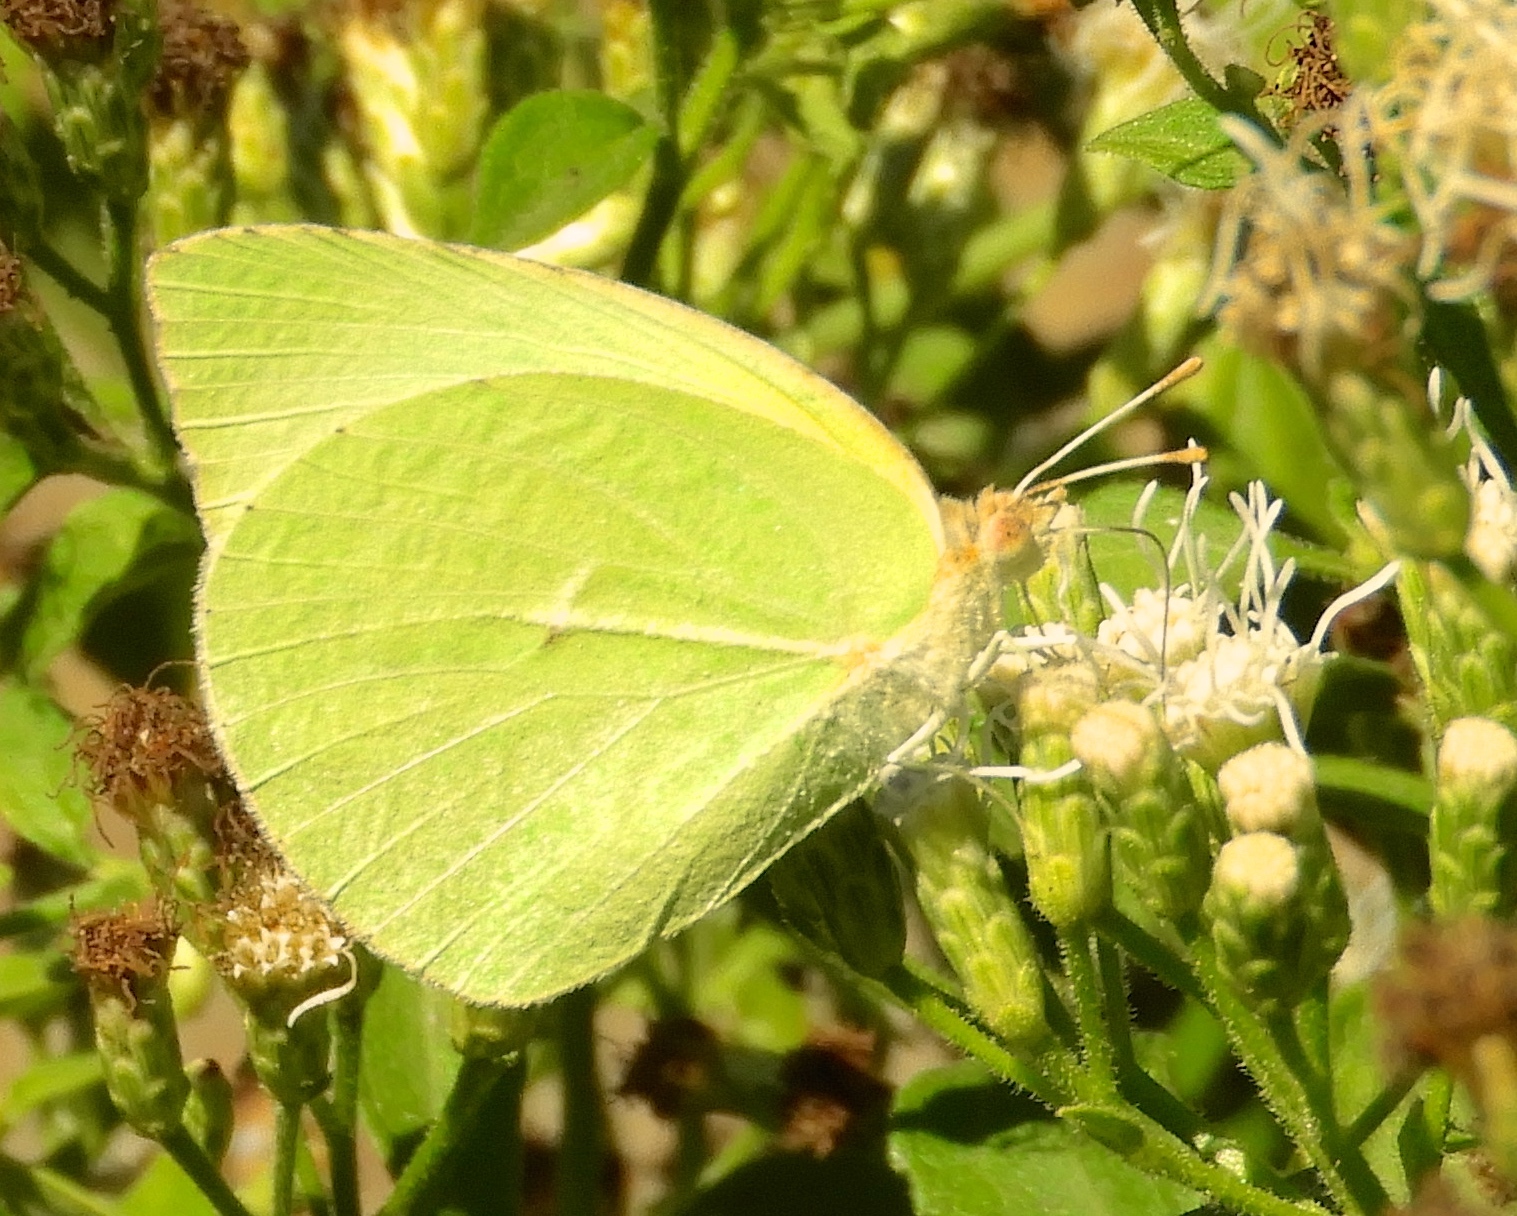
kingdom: Animalia
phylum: Arthropoda
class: Insecta
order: Lepidoptera
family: Pieridae
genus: Kricogonia
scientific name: Kricogonia lyside
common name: Guayacan sulphur,
